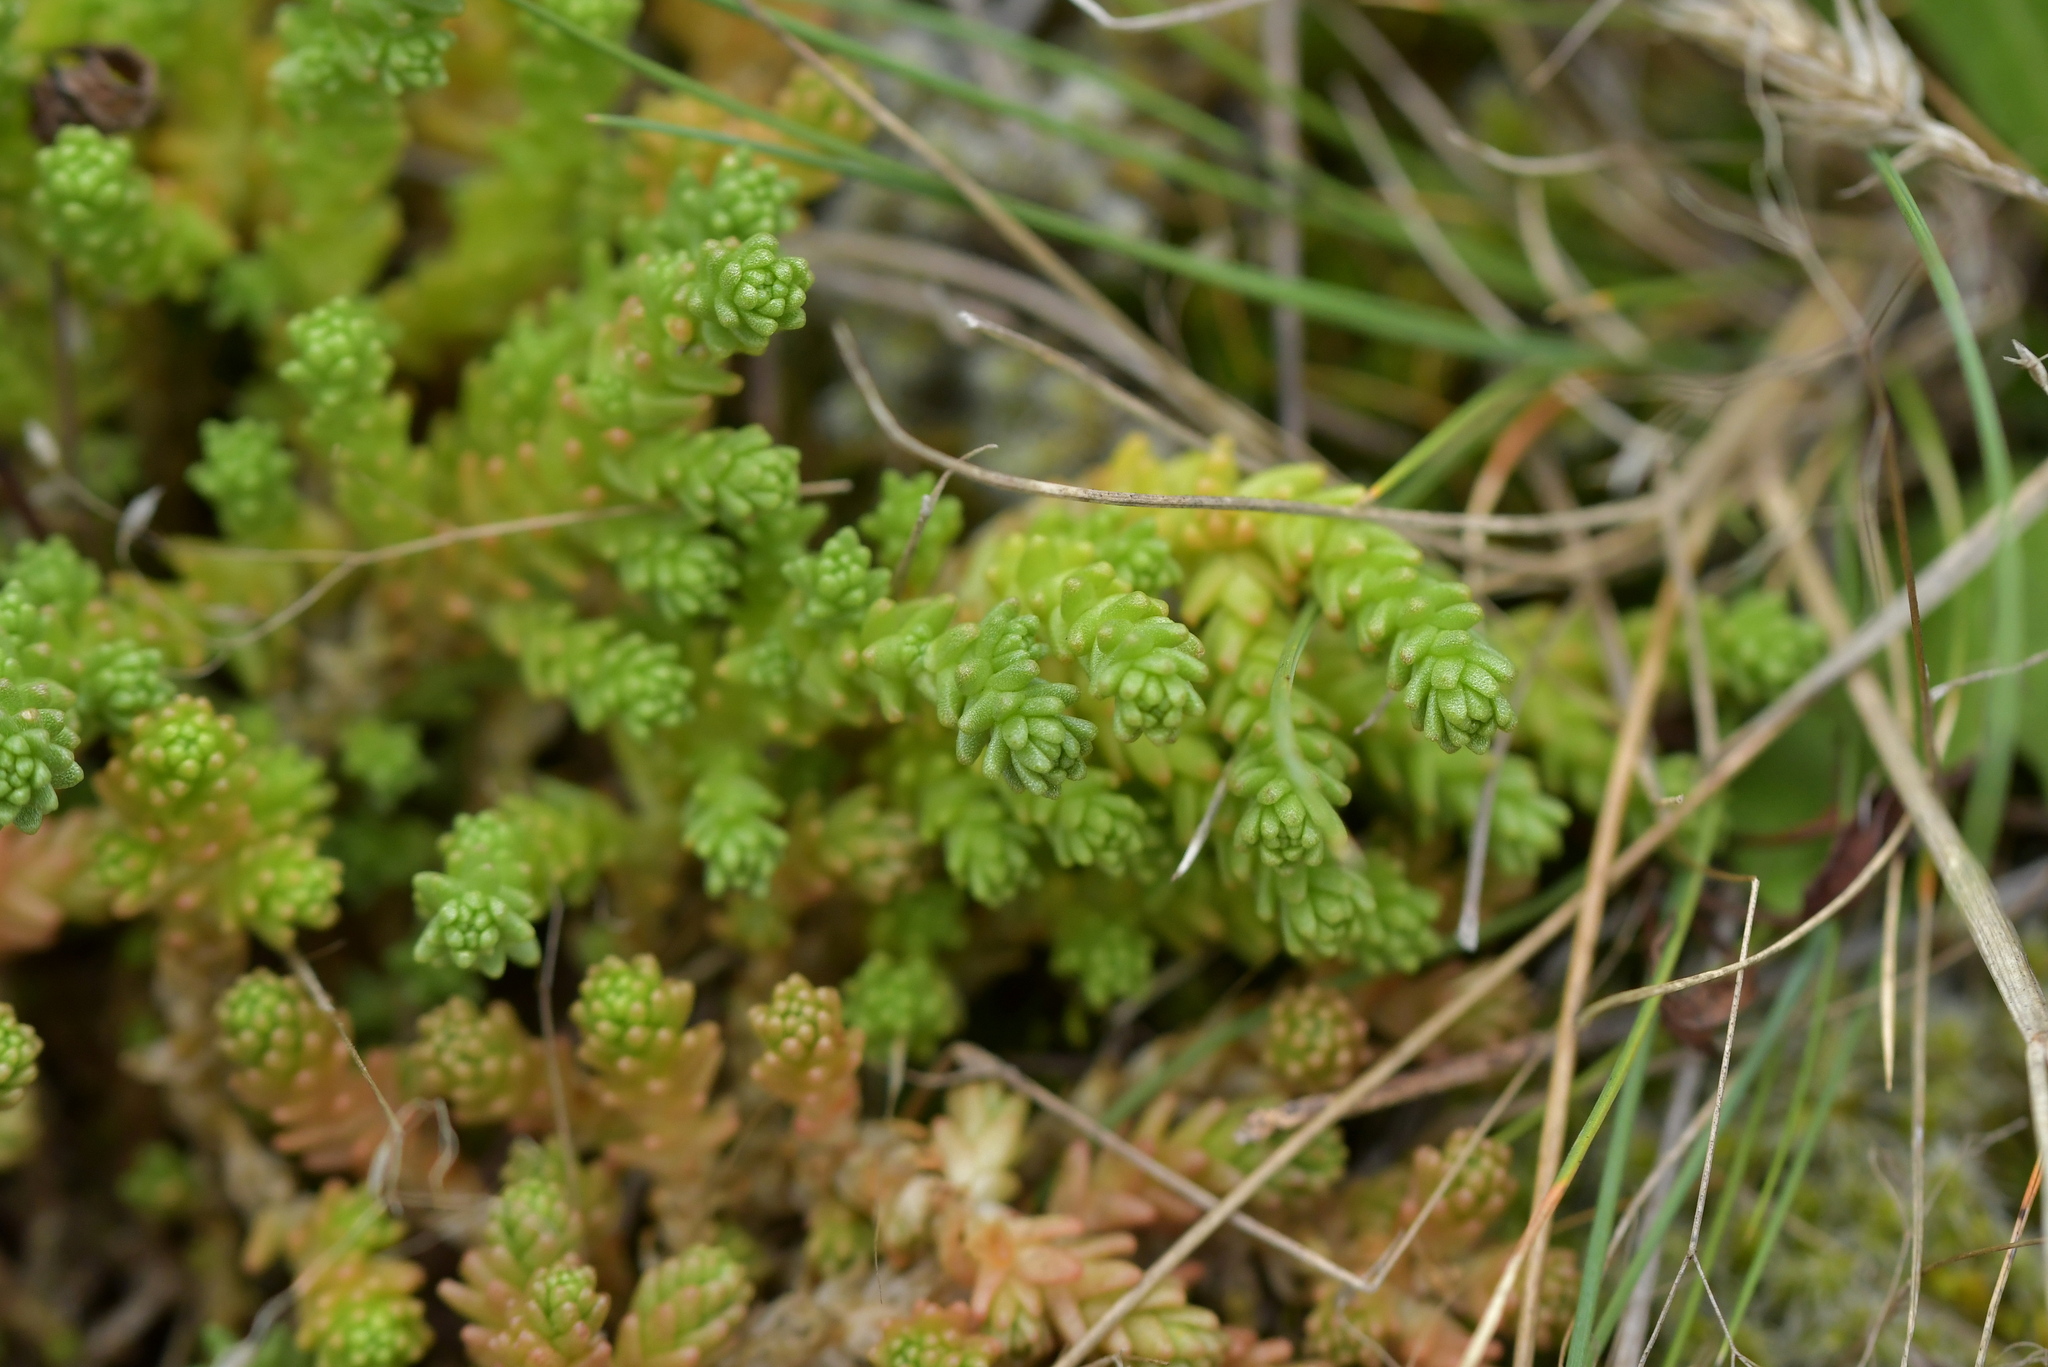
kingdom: Plantae
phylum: Tracheophyta
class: Magnoliopsida
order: Saxifragales
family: Crassulaceae
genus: Sedum
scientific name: Sedum acre
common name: Biting stonecrop
